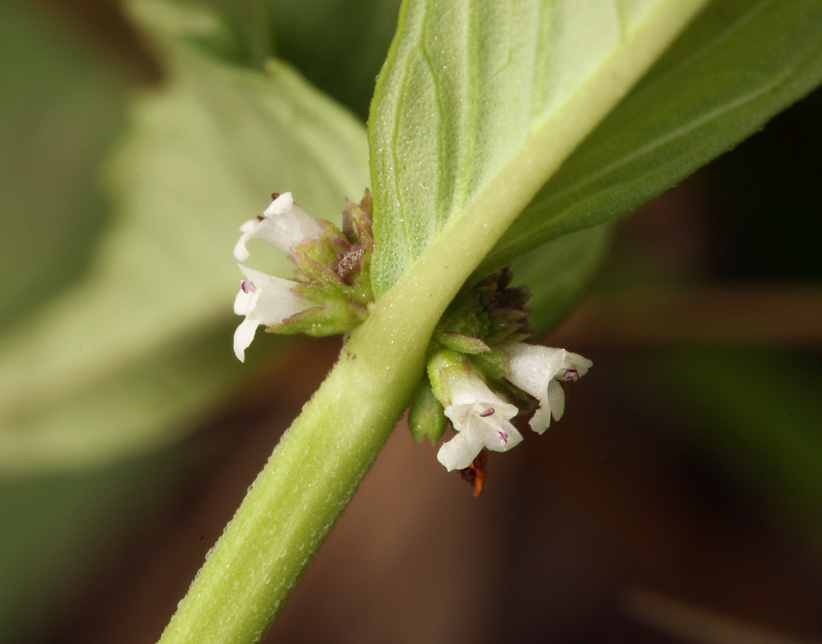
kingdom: Plantae
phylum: Tracheophyta
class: Magnoliopsida
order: Lamiales
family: Lamiaceae
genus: Lycopus
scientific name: Lycopus uniflorus
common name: Northern bugleweed
